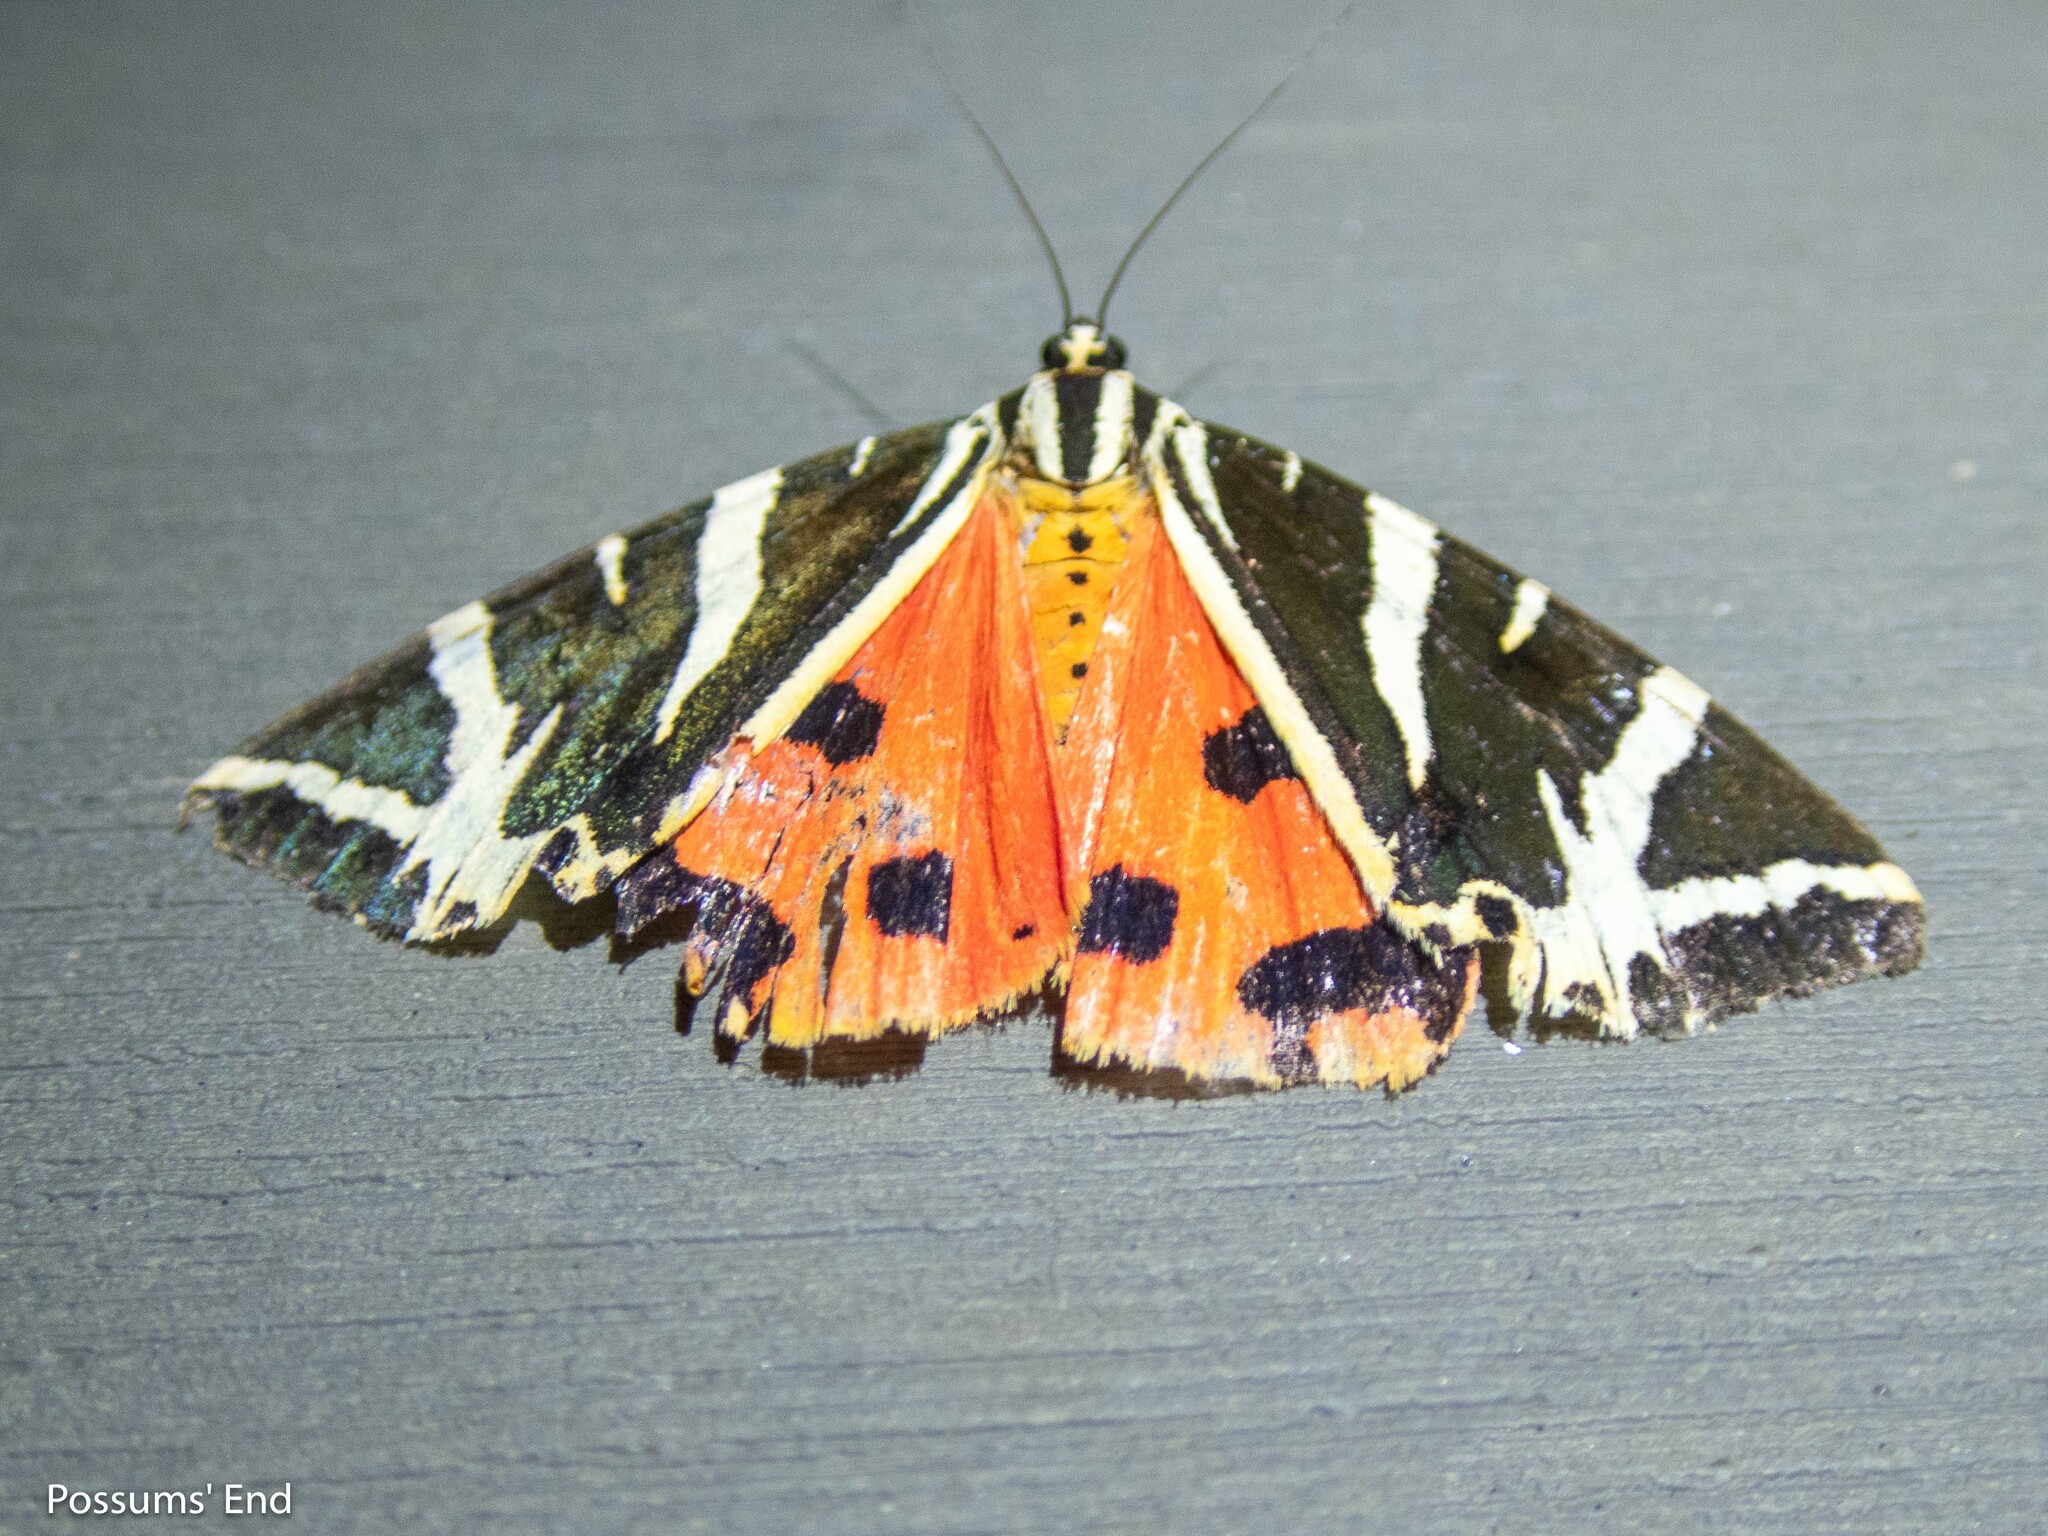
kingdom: Animalia
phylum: Arthropoda
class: Insecta
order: Lepidoptera
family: Erebidae
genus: Euplagia
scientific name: Euplagia quadripunctaria
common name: Jersey tiger
